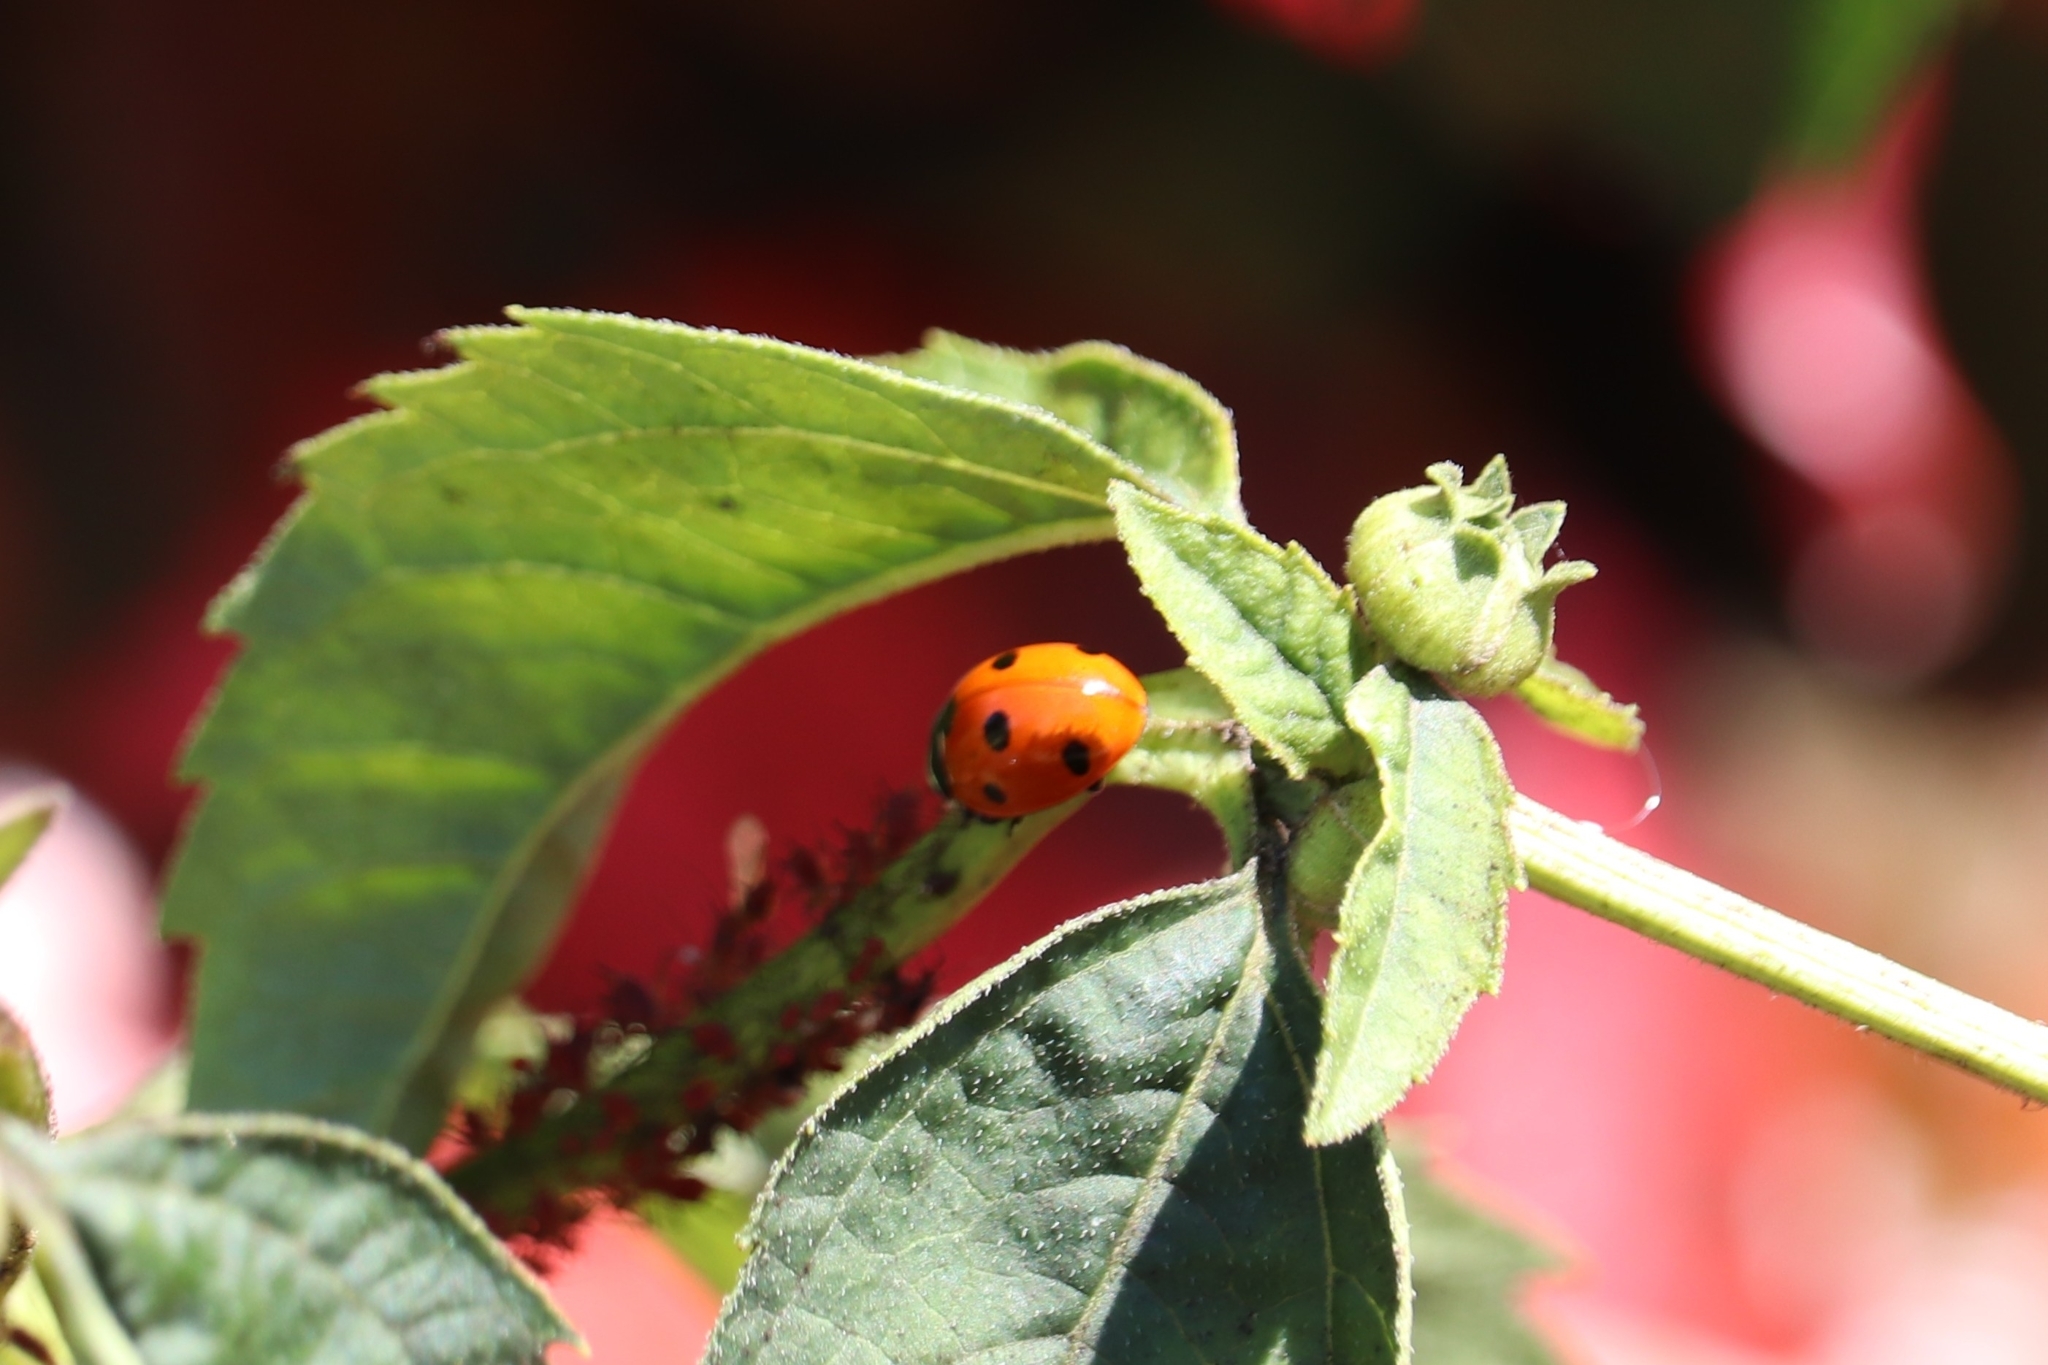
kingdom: Animalia
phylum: Arthropoda
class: Insecta
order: Coleoptera
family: Coccinellidae
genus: Coccinella
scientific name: Coccinella septempunctata
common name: Sevenspotted lady beetle
